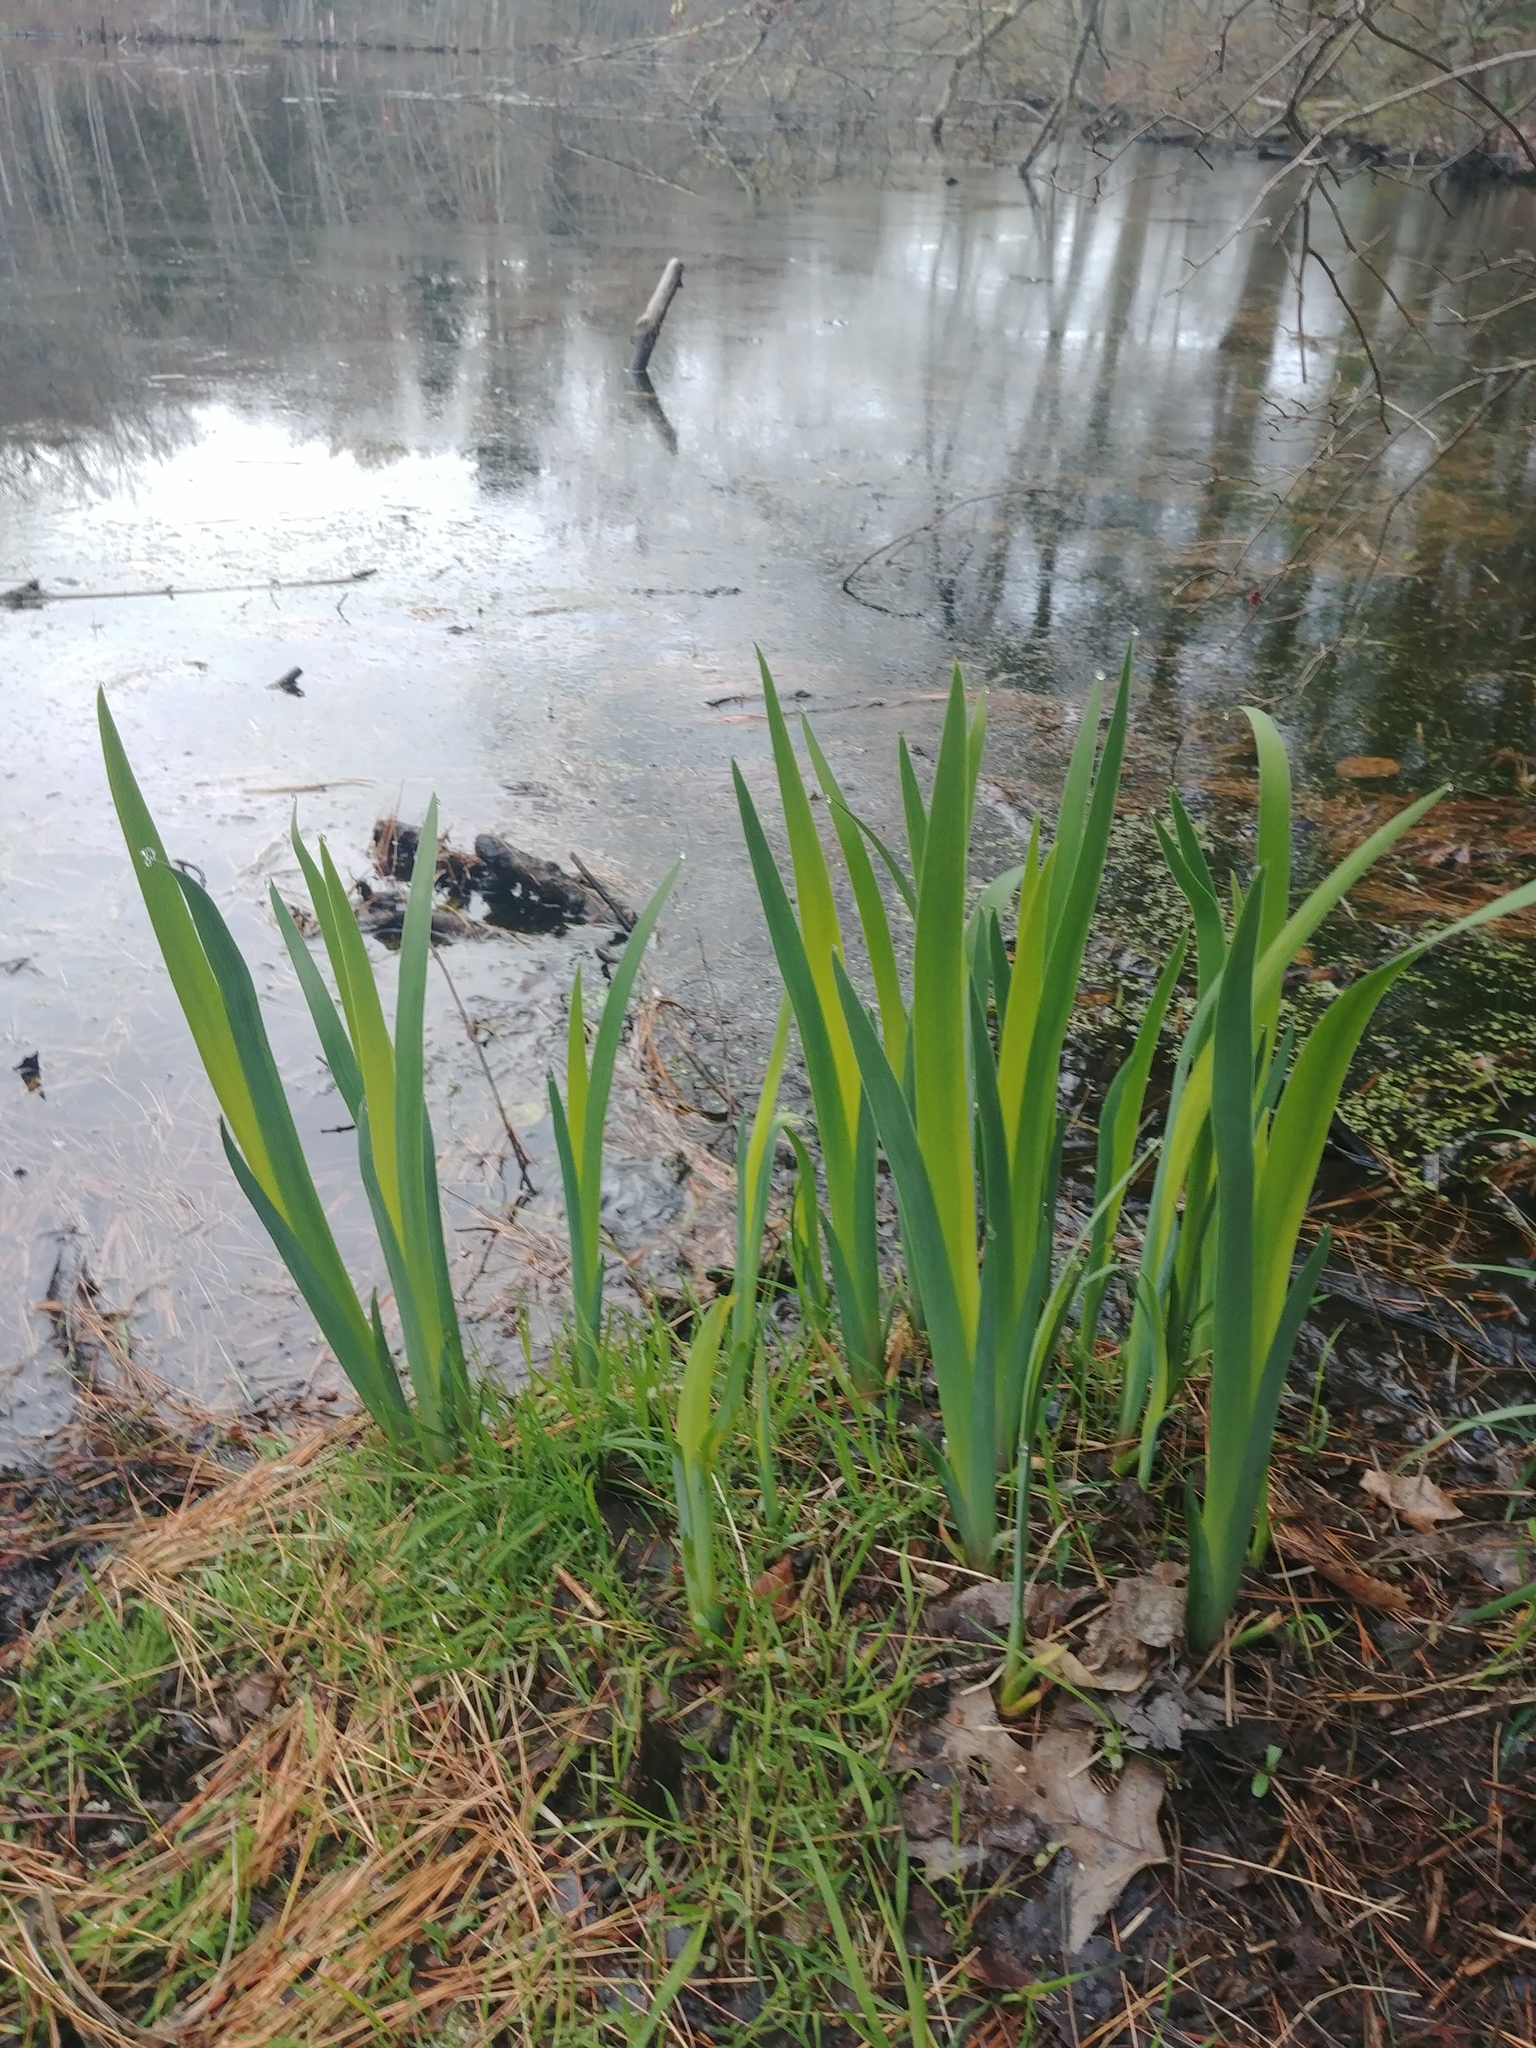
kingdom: Plantae
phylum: Tracheophyta
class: Liliopsida
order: Asparagales
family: Iridaceae
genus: Iris
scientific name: Iris
